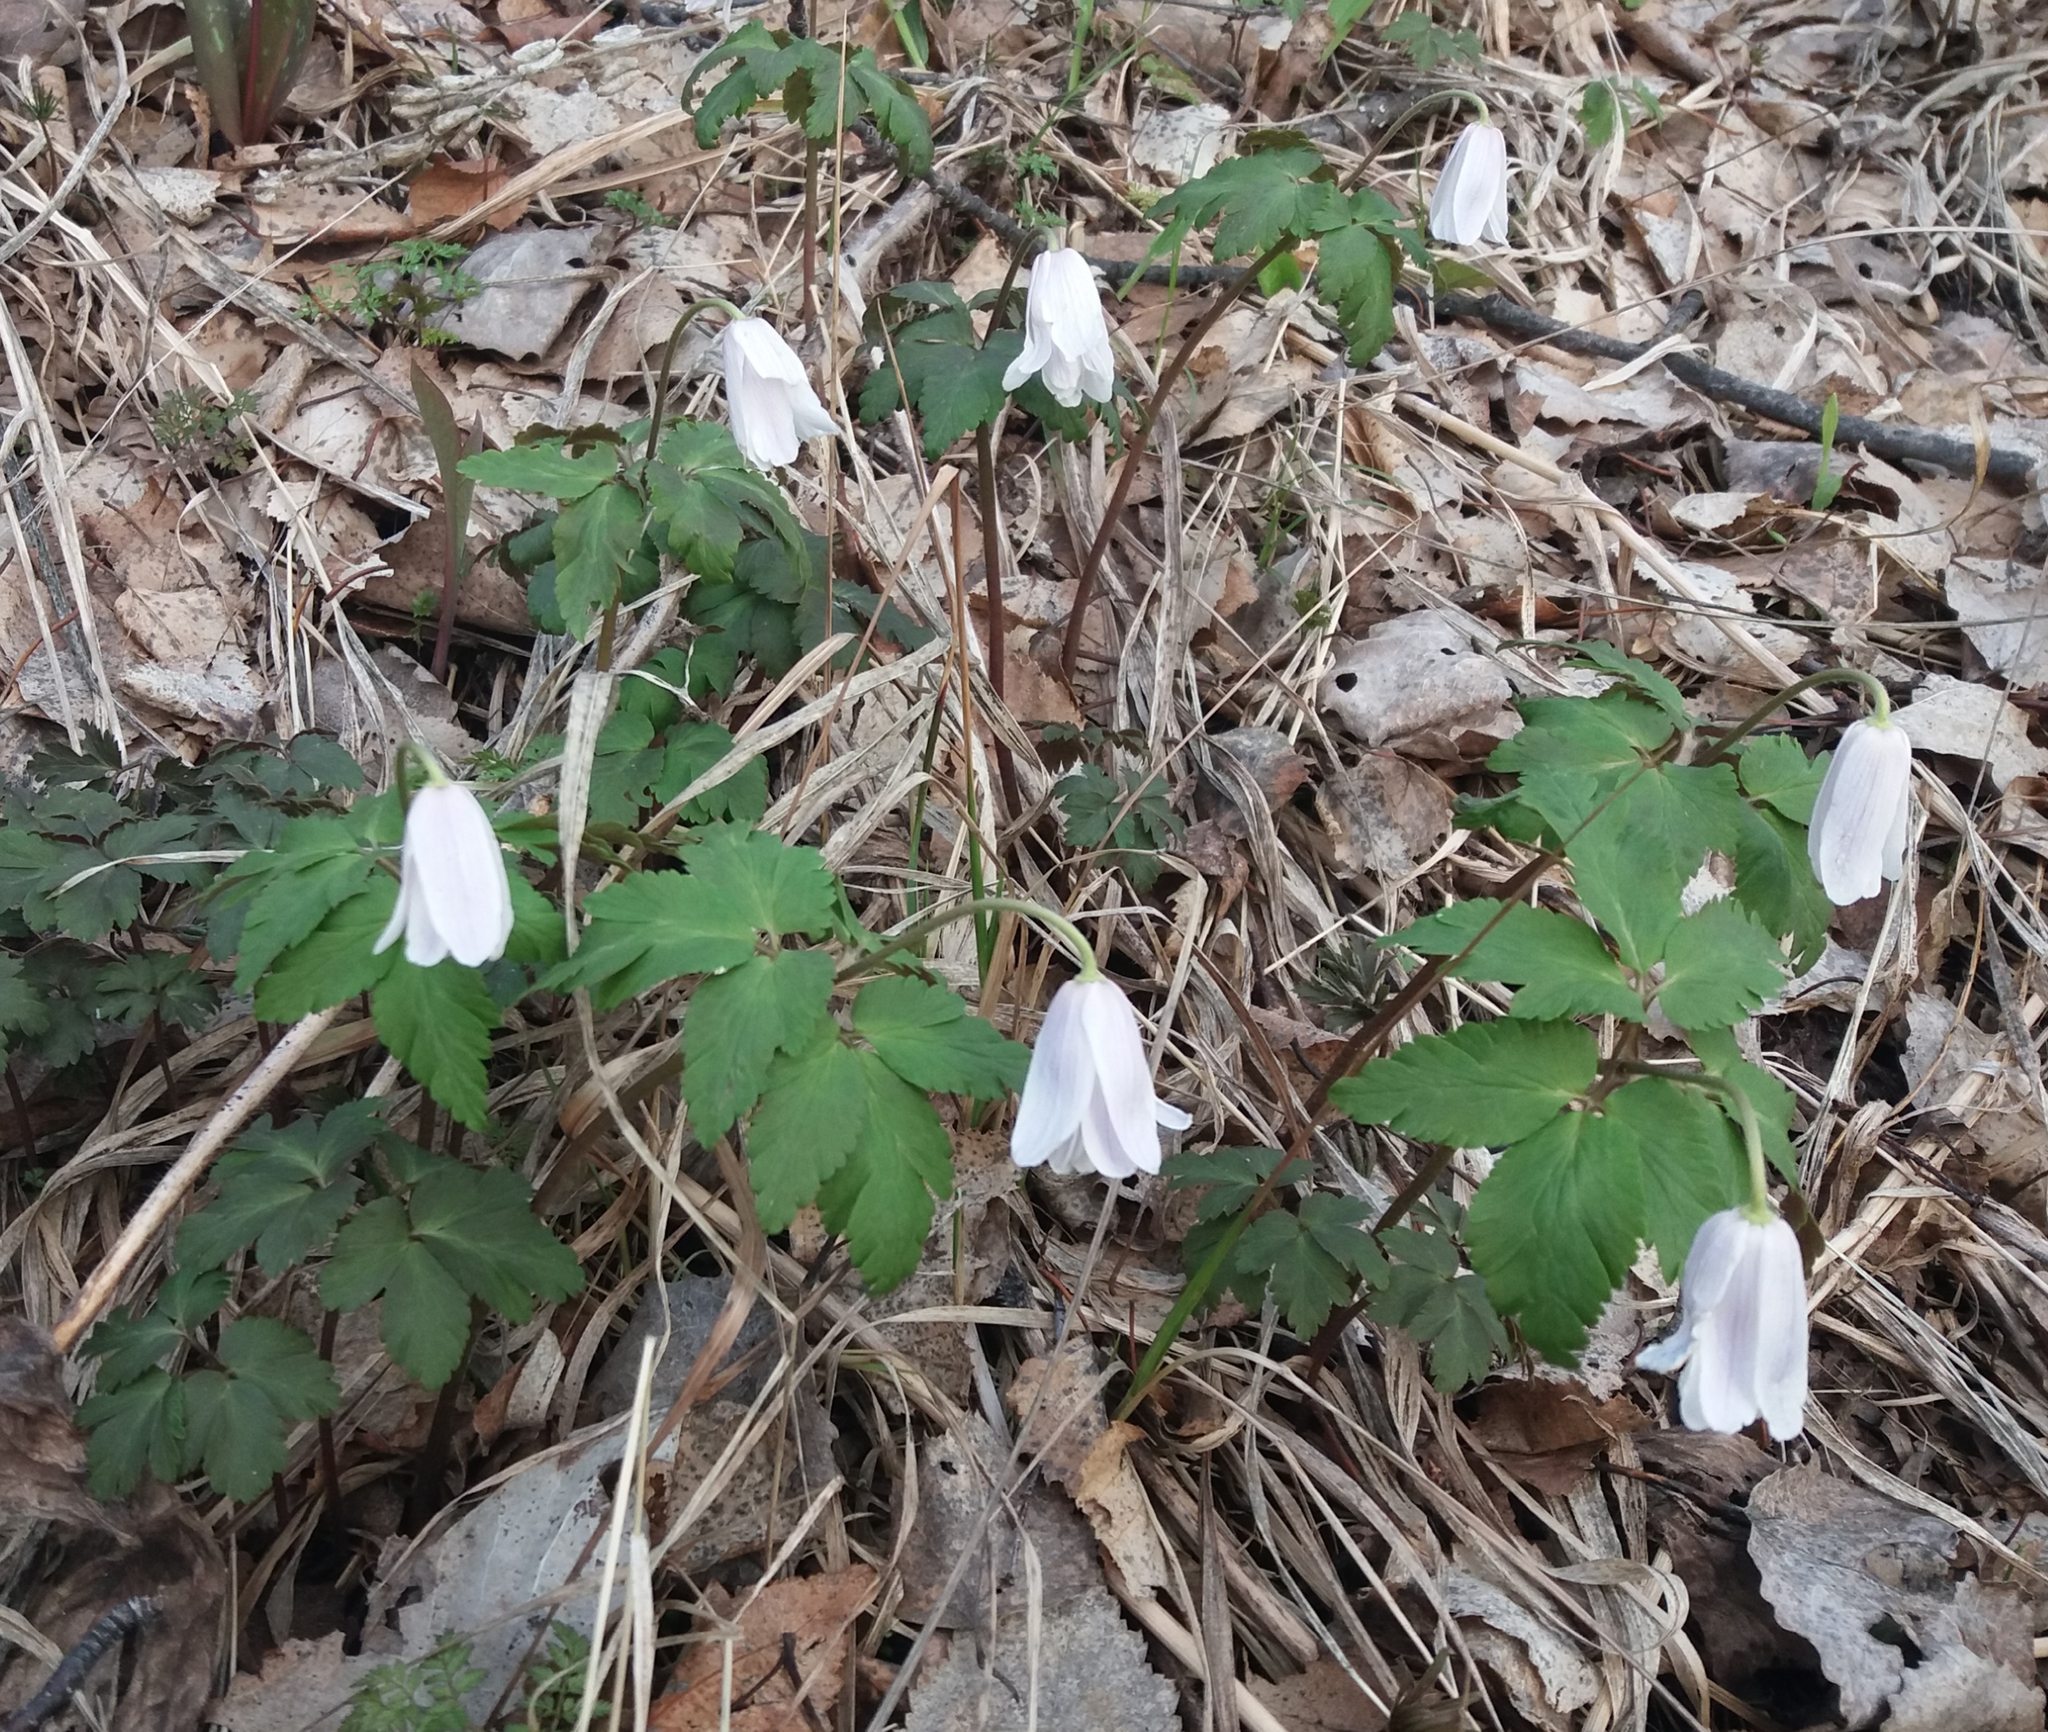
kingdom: Plantae
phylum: Tracheophyta
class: Magnoliopsida
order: Ranunculales
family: Ranunculaceae
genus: Anemone
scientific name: Anemone altaica
